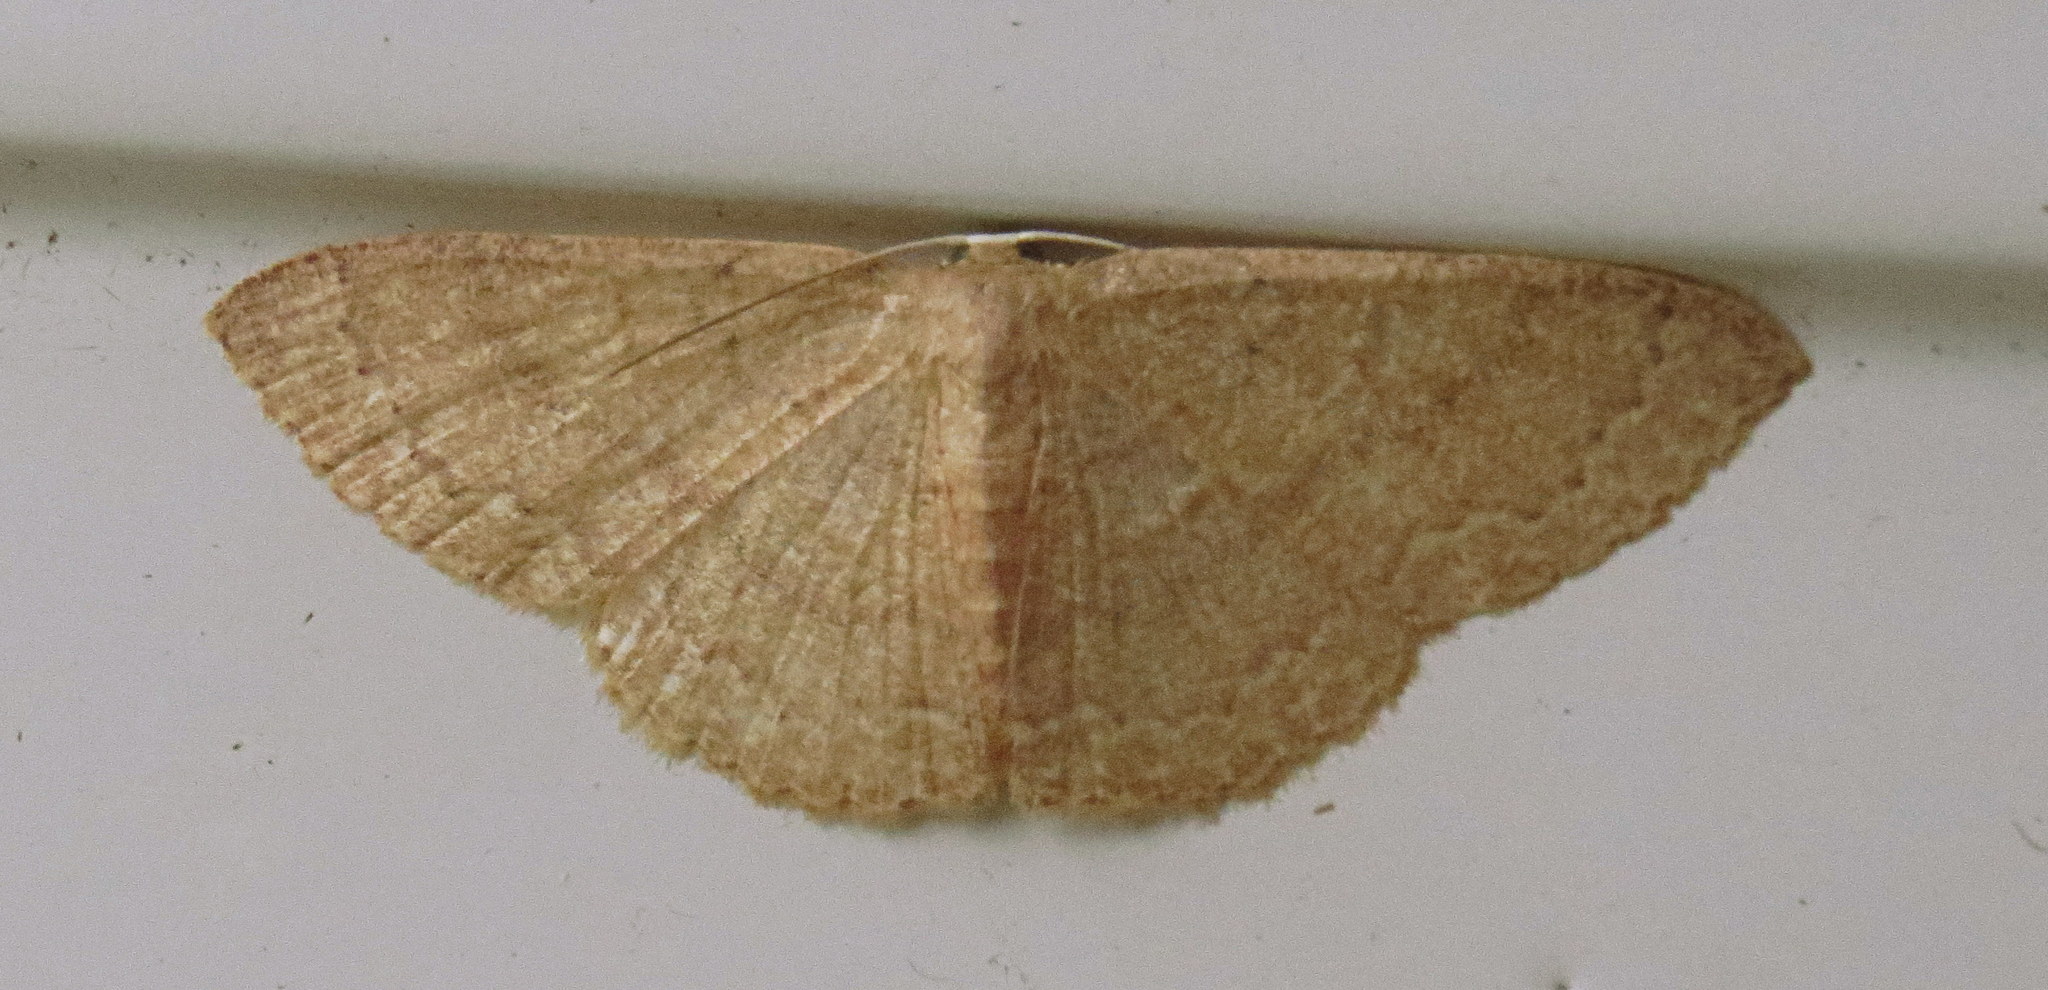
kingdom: Animalia
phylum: Arthropoda
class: Insecta
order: Lepidoptera
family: Geometridae
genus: Pleuroprucha
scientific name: Pleuroprucha insulsaria
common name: Common tan wave
